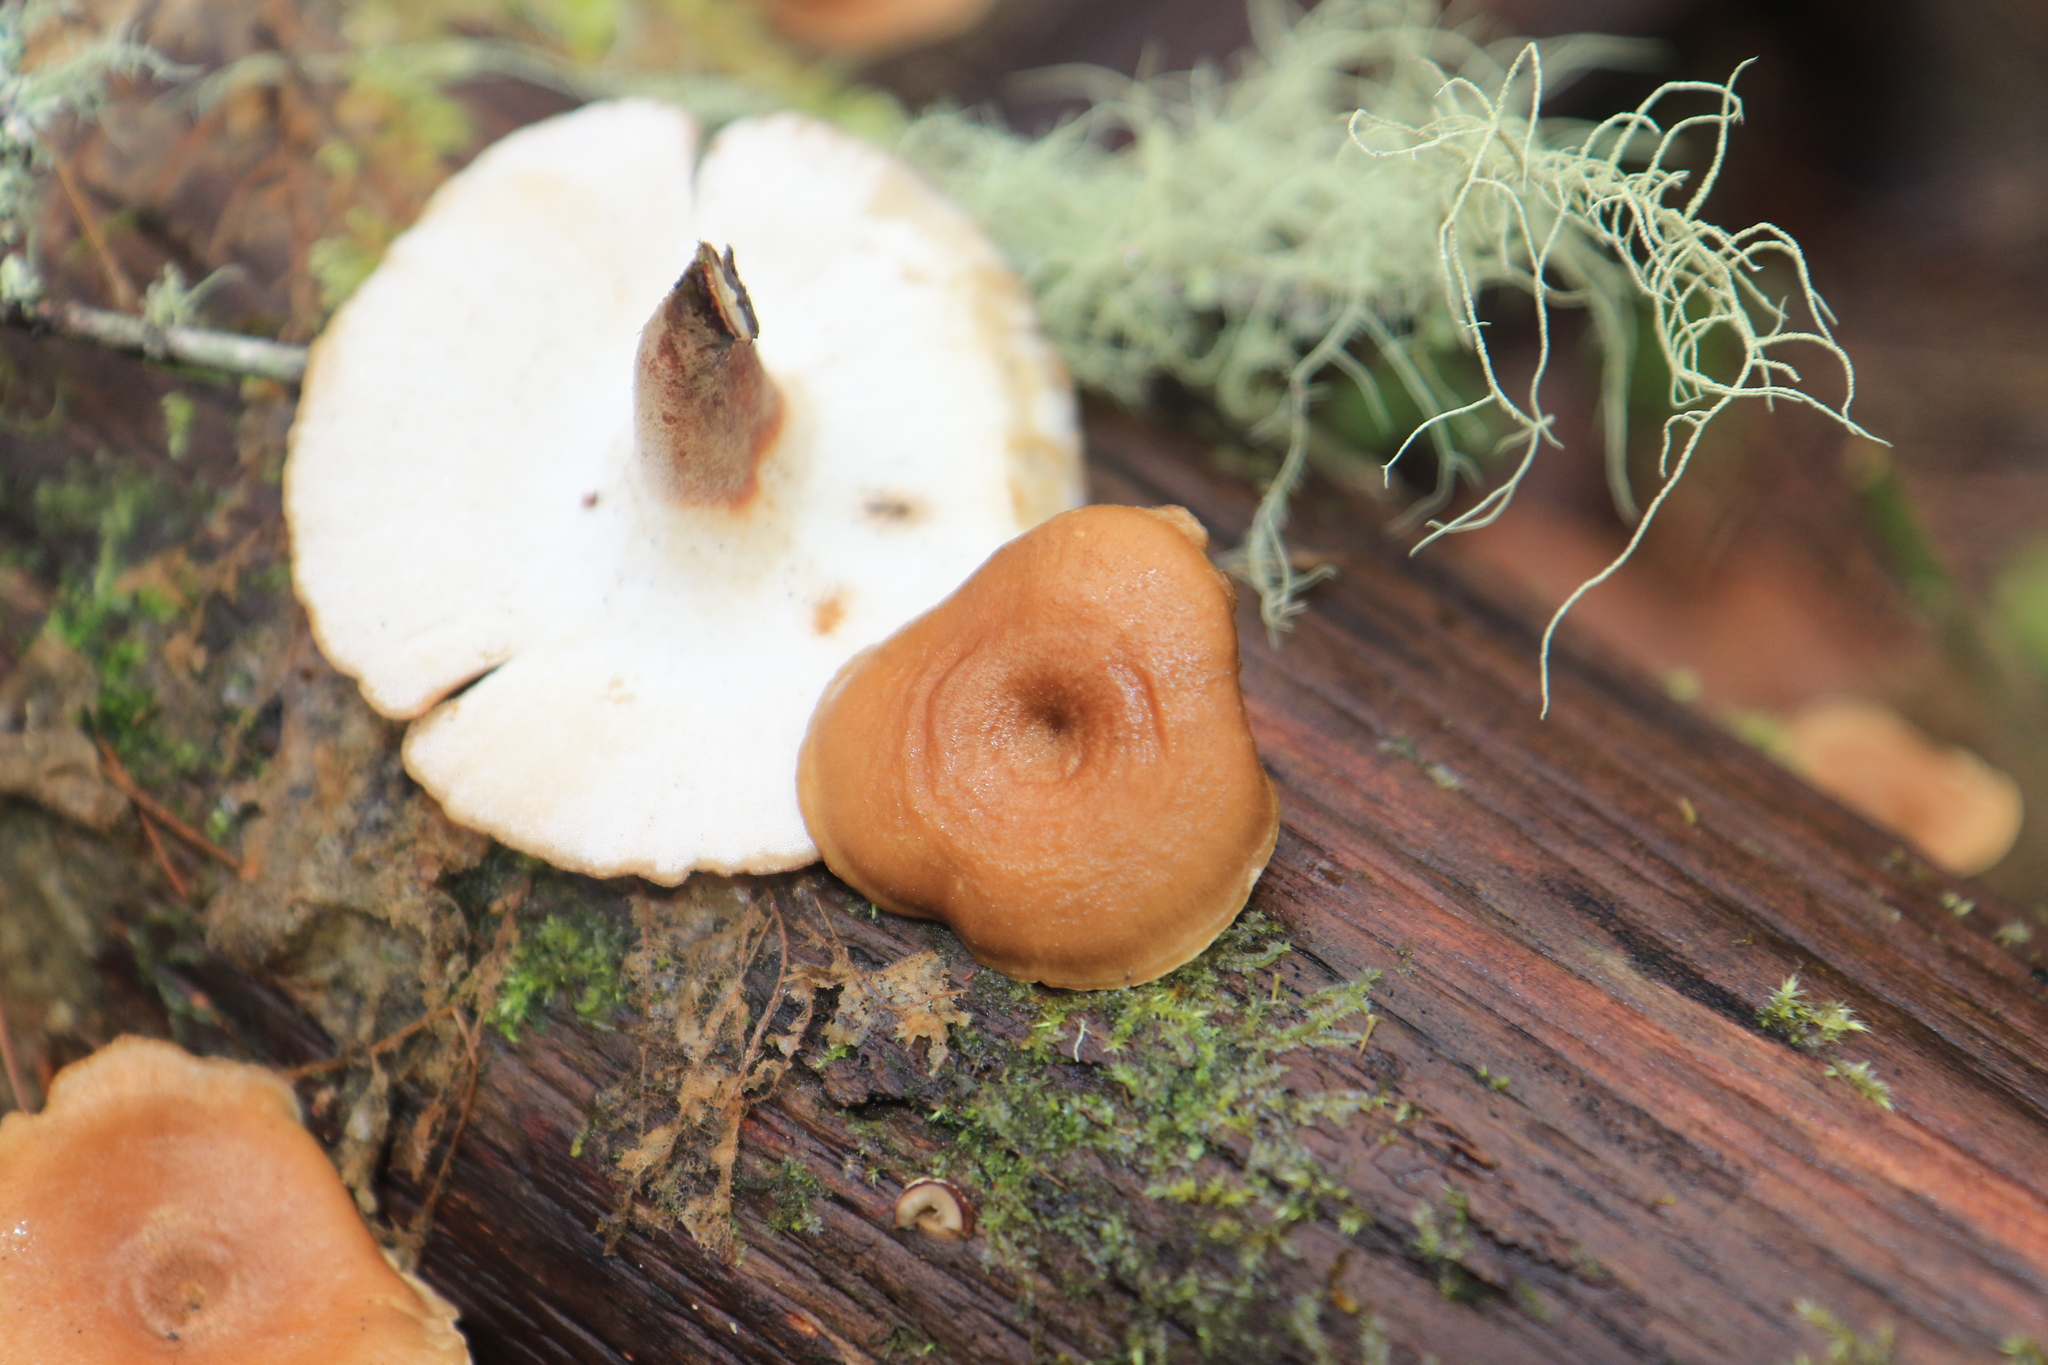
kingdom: Fungi
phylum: Basidiomycota
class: Agaricomycetes
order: Polyporales
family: Polyporaceae
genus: Picipes
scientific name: Picipes badius
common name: Bay polypore
